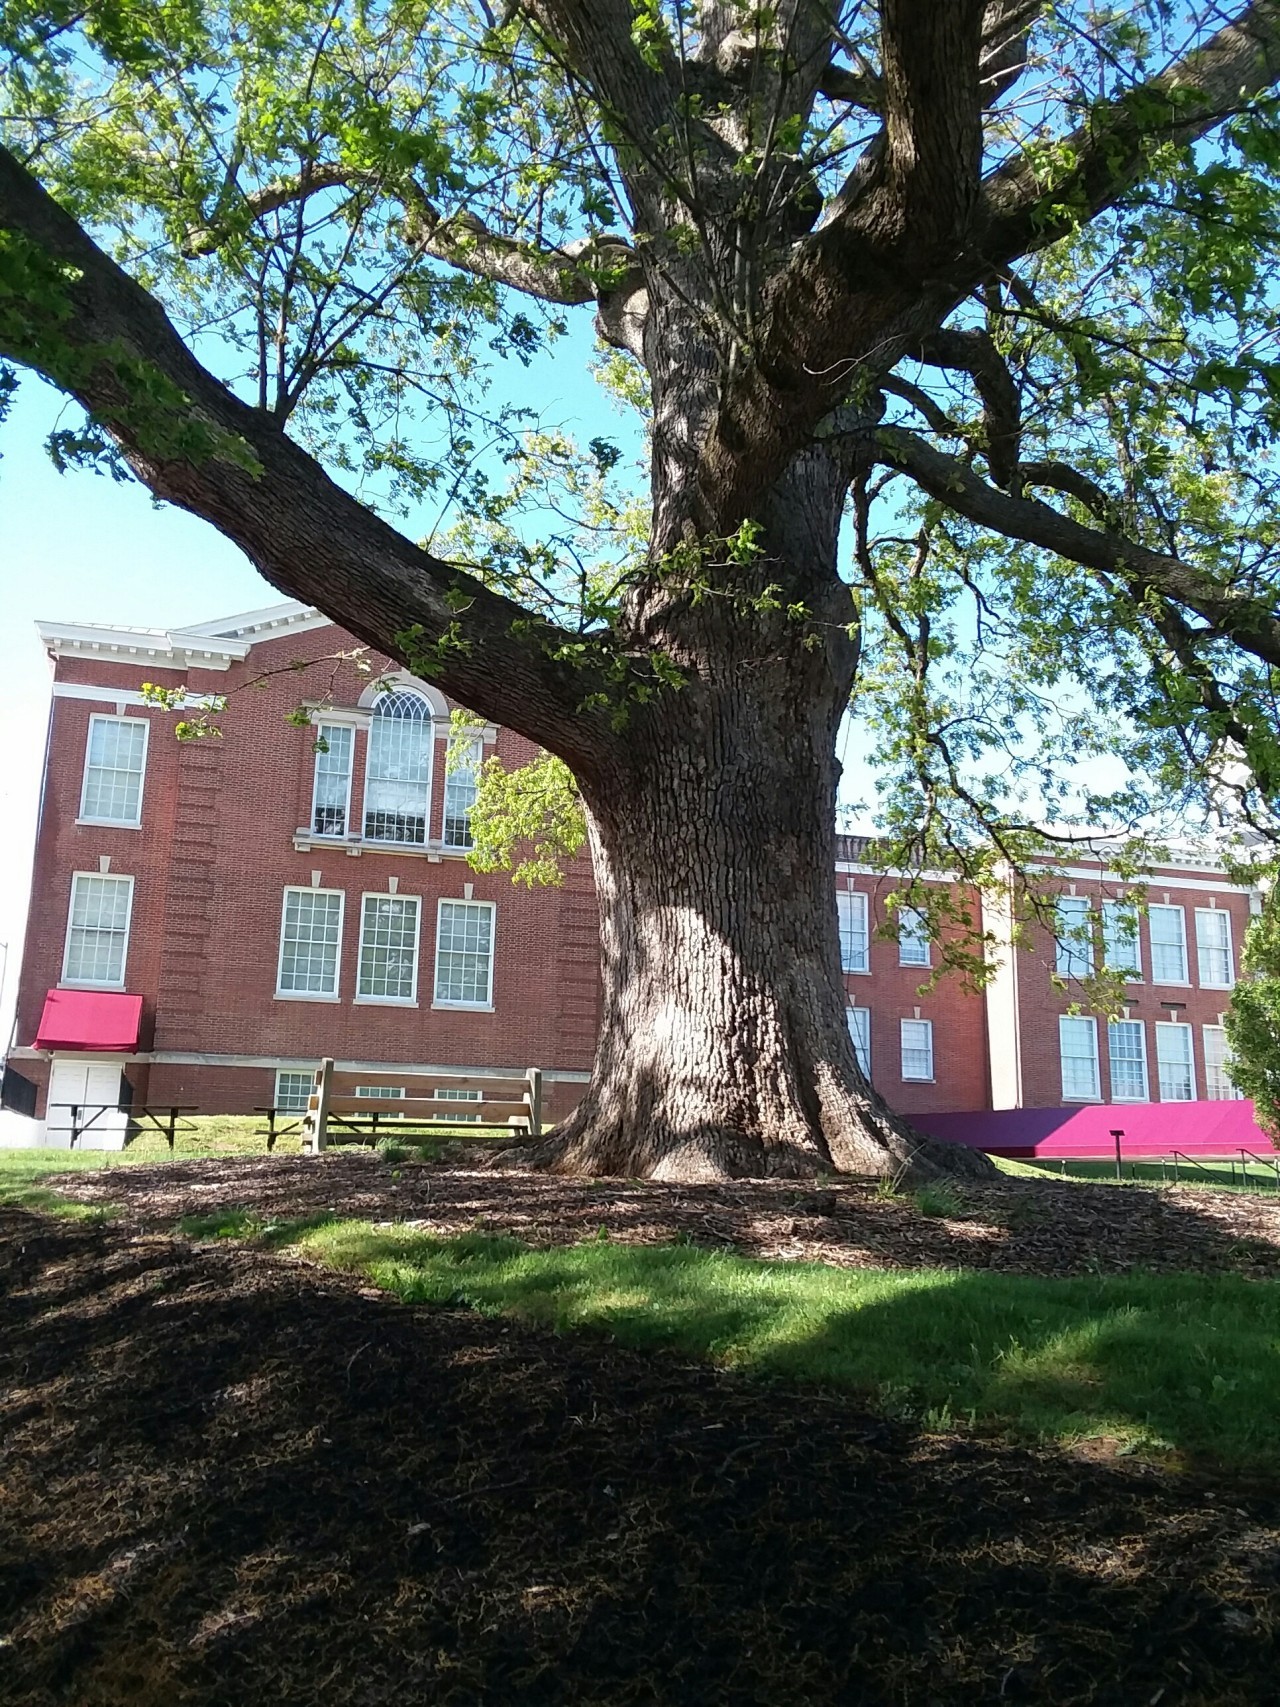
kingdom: Plantae
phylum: Tracheophyta
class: Magnoliopsida
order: Fagales
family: Fagaceae
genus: Quercus
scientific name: Quercus alba
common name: White oak
